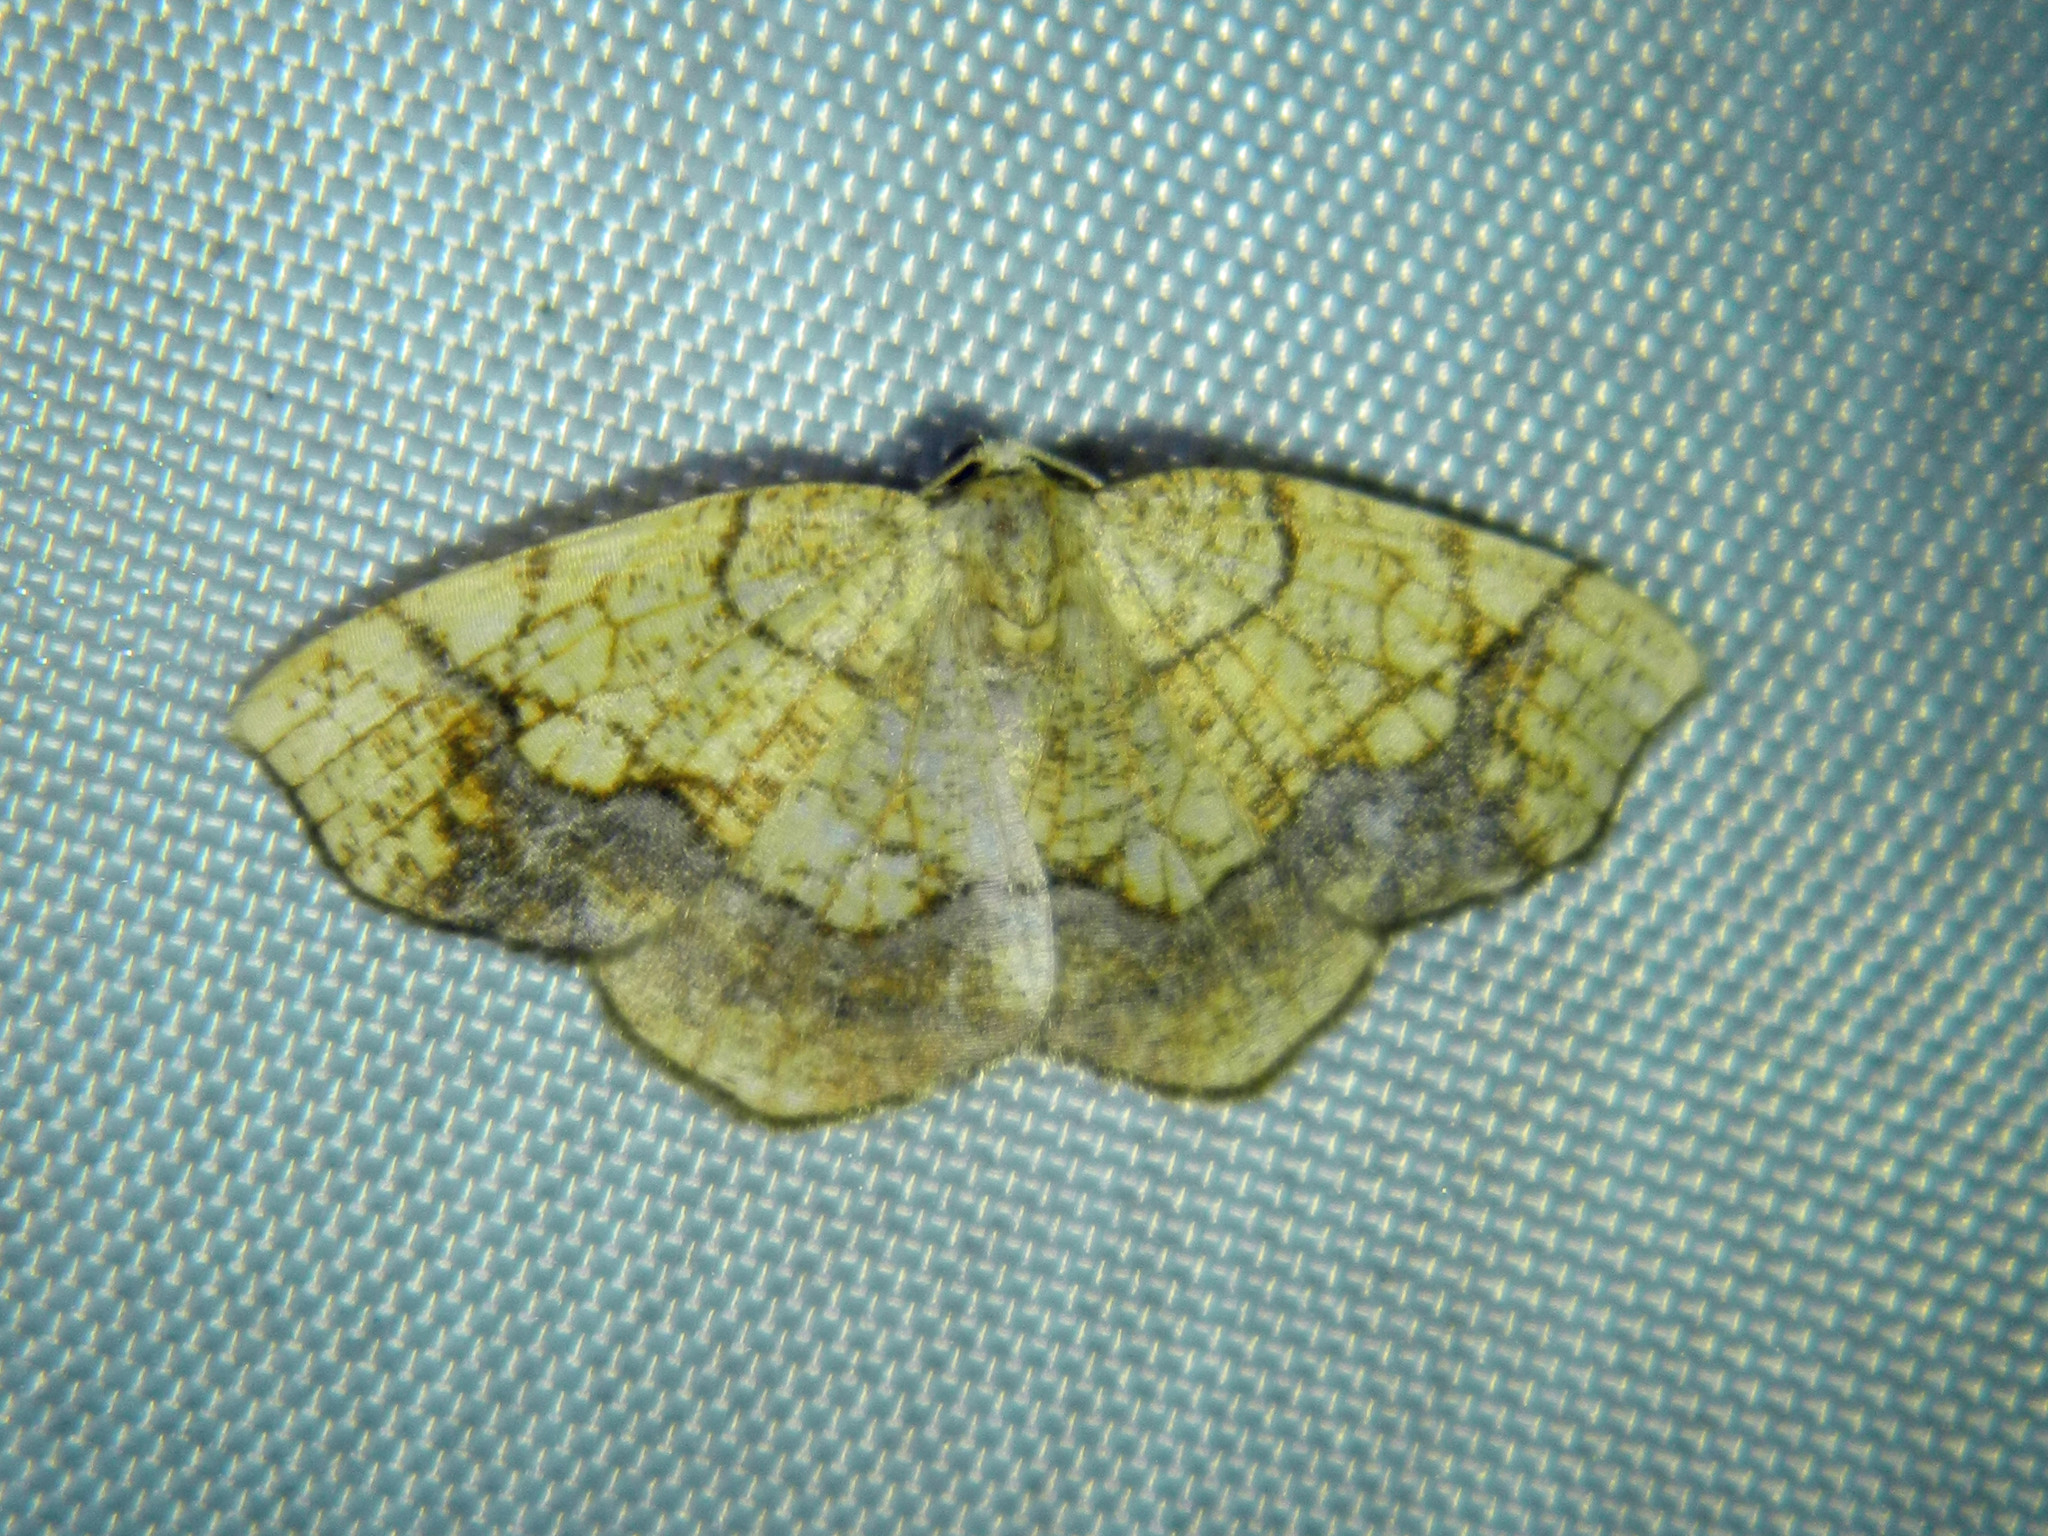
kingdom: Animalia
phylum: Arthropoda
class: Insecta
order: Lepidoptera
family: Geometridae
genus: Nematocampa
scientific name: Nematocampa resistaria
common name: Horned spanworm moth
